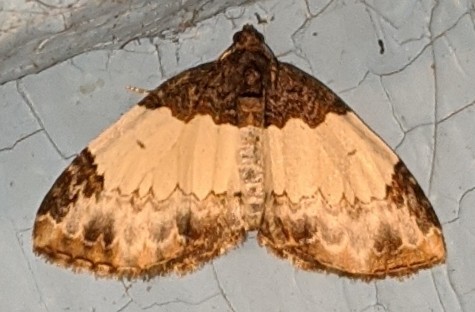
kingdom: Animalia
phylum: Arthropoda
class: Insecta
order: Lepidoptera
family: Geometridae
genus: Mesoleuca
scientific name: Mesoleuca ruficillata
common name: White-ribboned carpet moth
